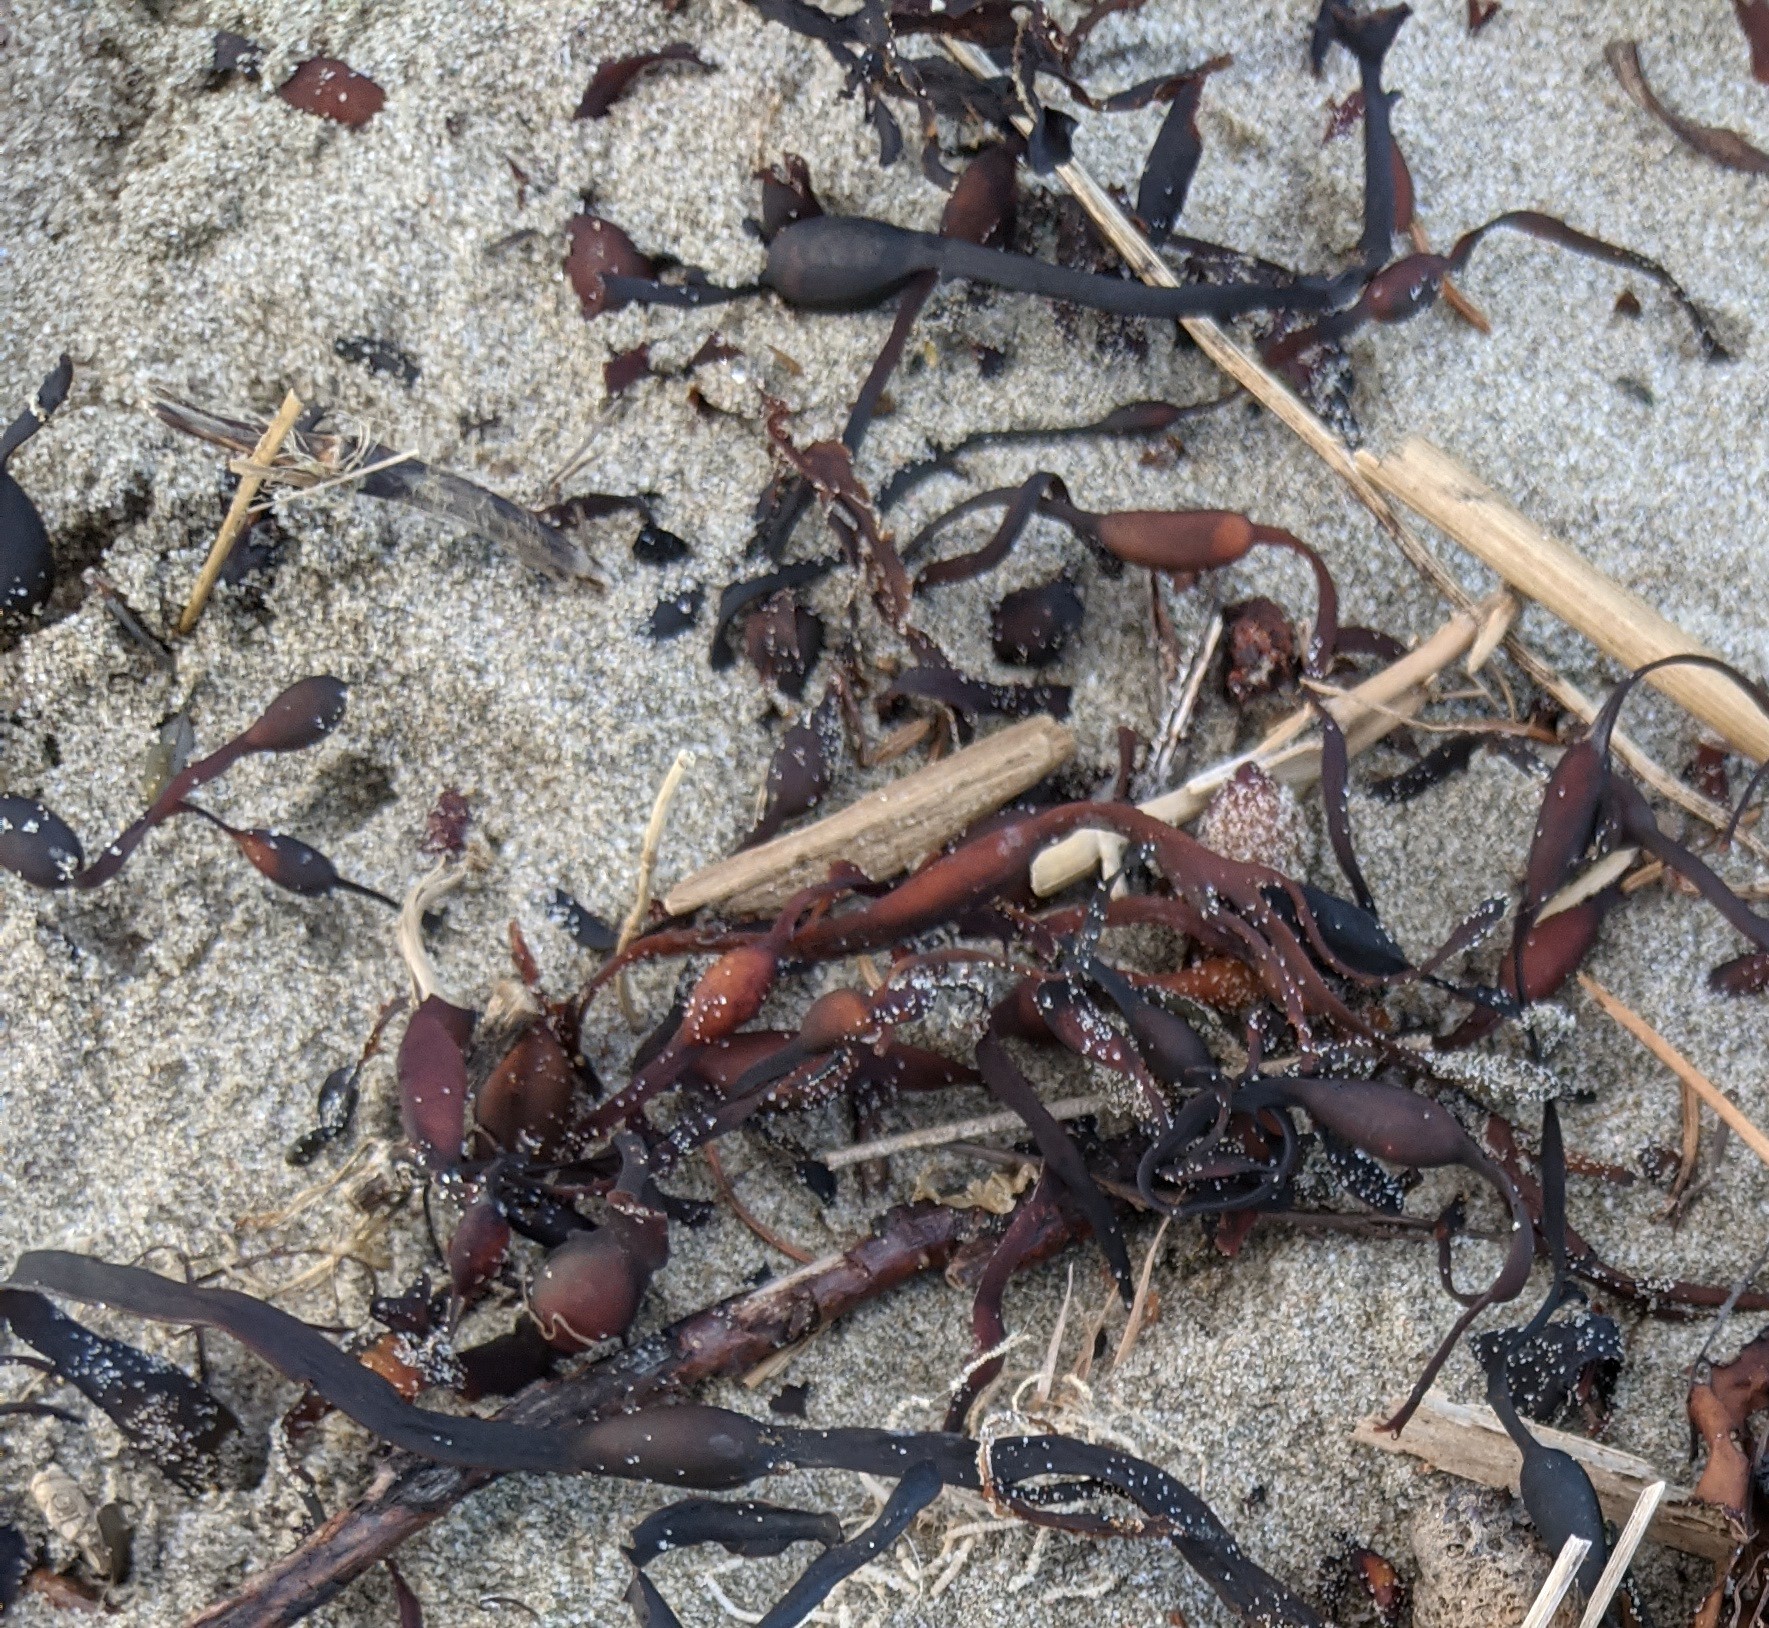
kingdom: Chromista
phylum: Ochrophyta
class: Phaeophyceae
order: Fucales
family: Fucaceae
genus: Ascophyllum
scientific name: Ascophyllum nodosum
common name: Knotted wrack
